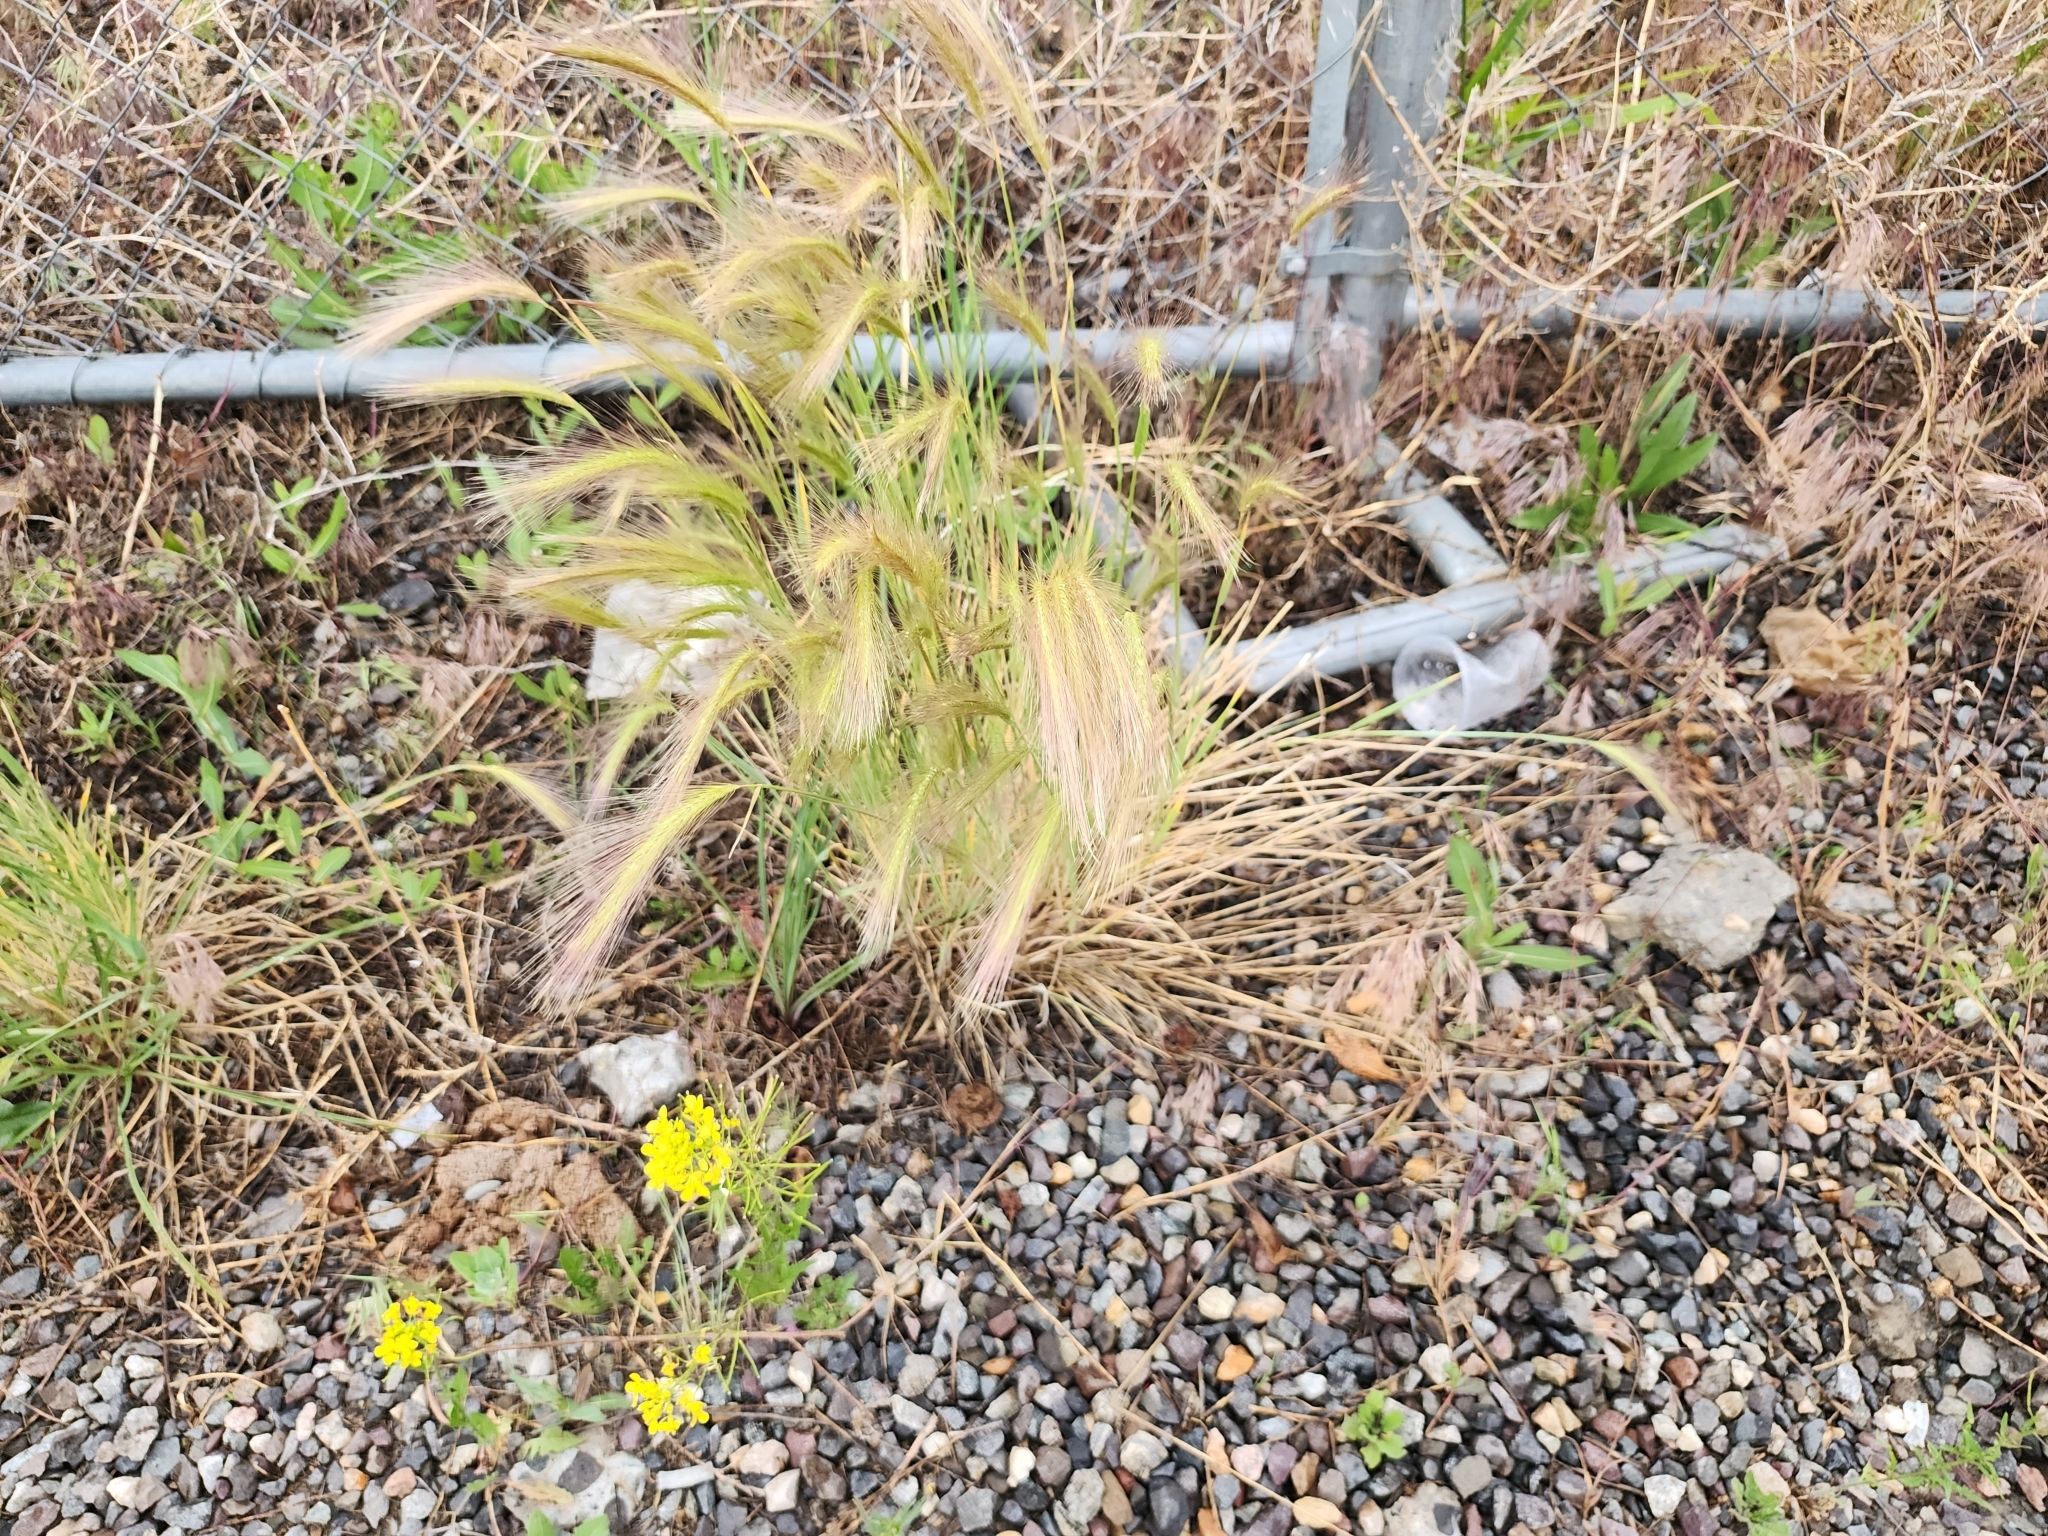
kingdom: Plantae
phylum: Tracheophyta
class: Liliopsida
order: Poales
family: Poaceae
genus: Hordeum
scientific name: Hordeum jubatum
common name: Foxtail barley
